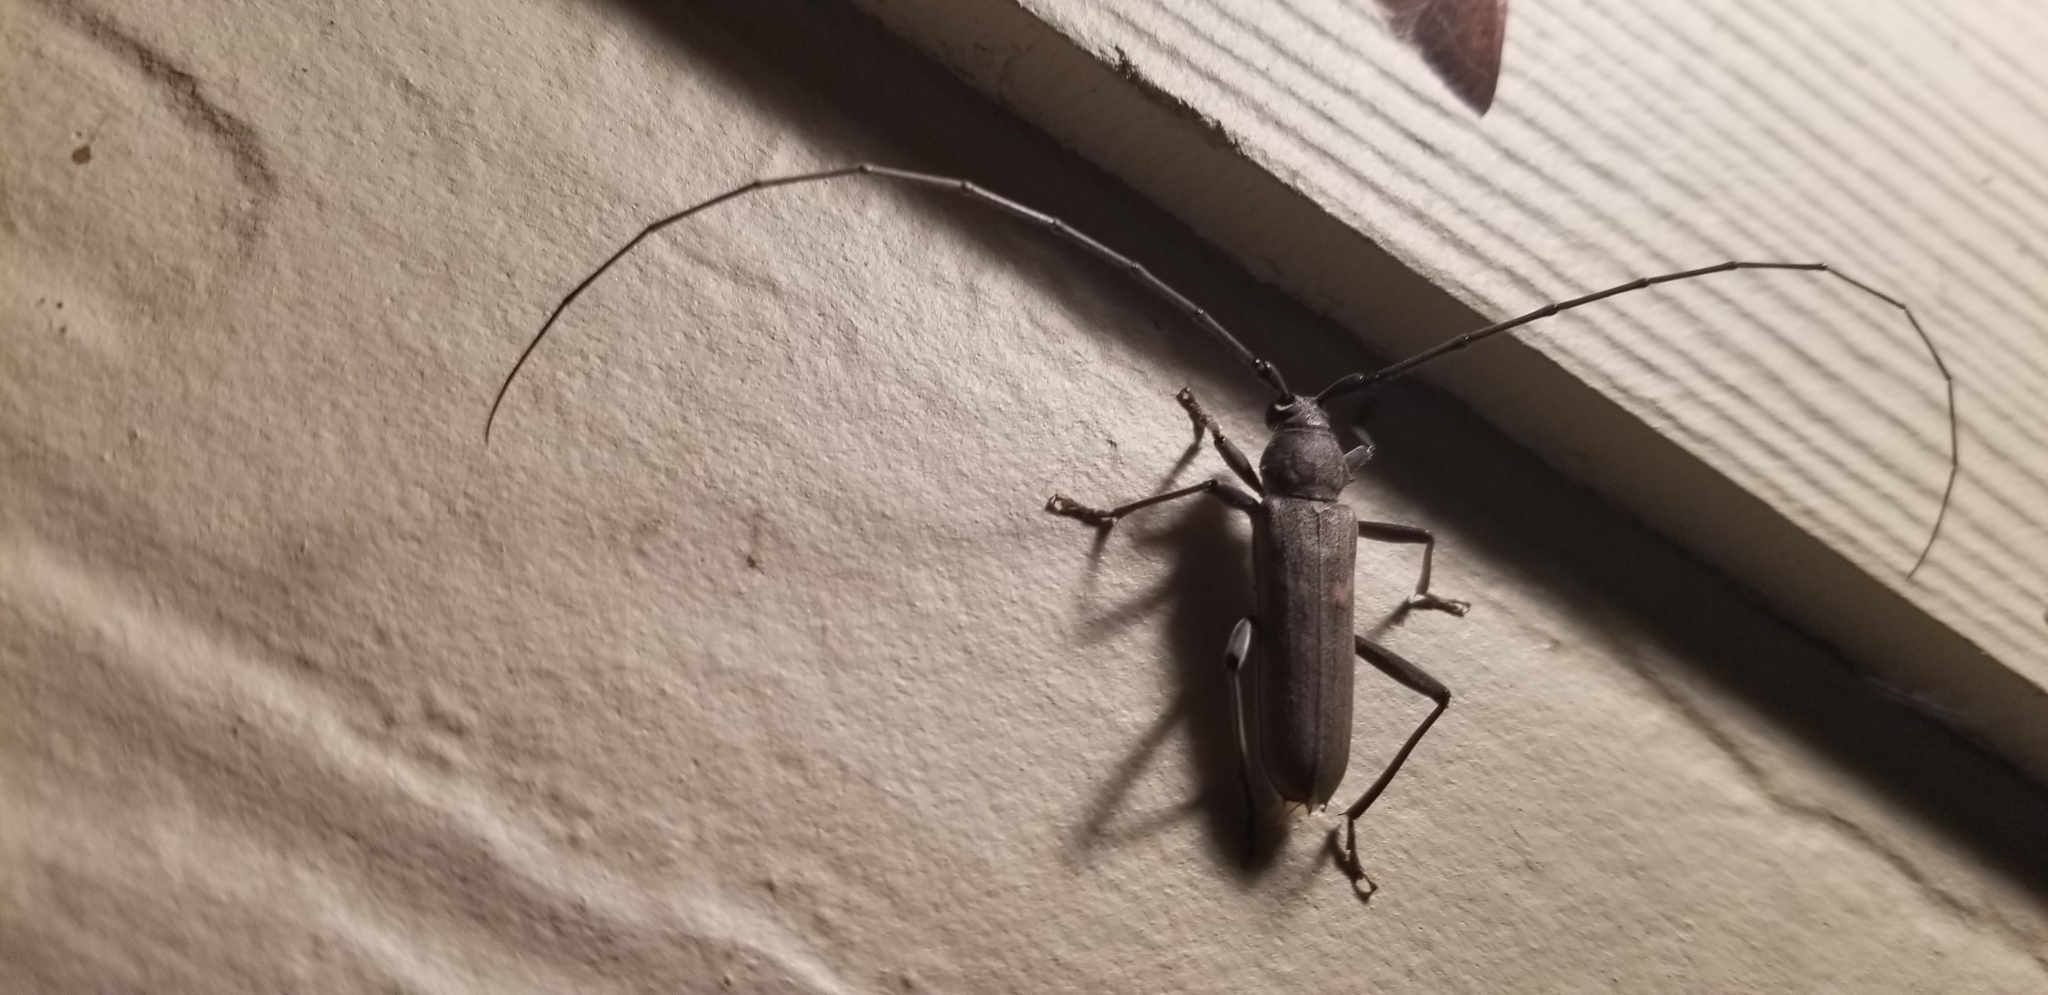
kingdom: Animalia
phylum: Arthropoda
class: Insecta
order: Coleoptera
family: Cerambycidae
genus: Knulliana
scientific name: Knulliana cincta
